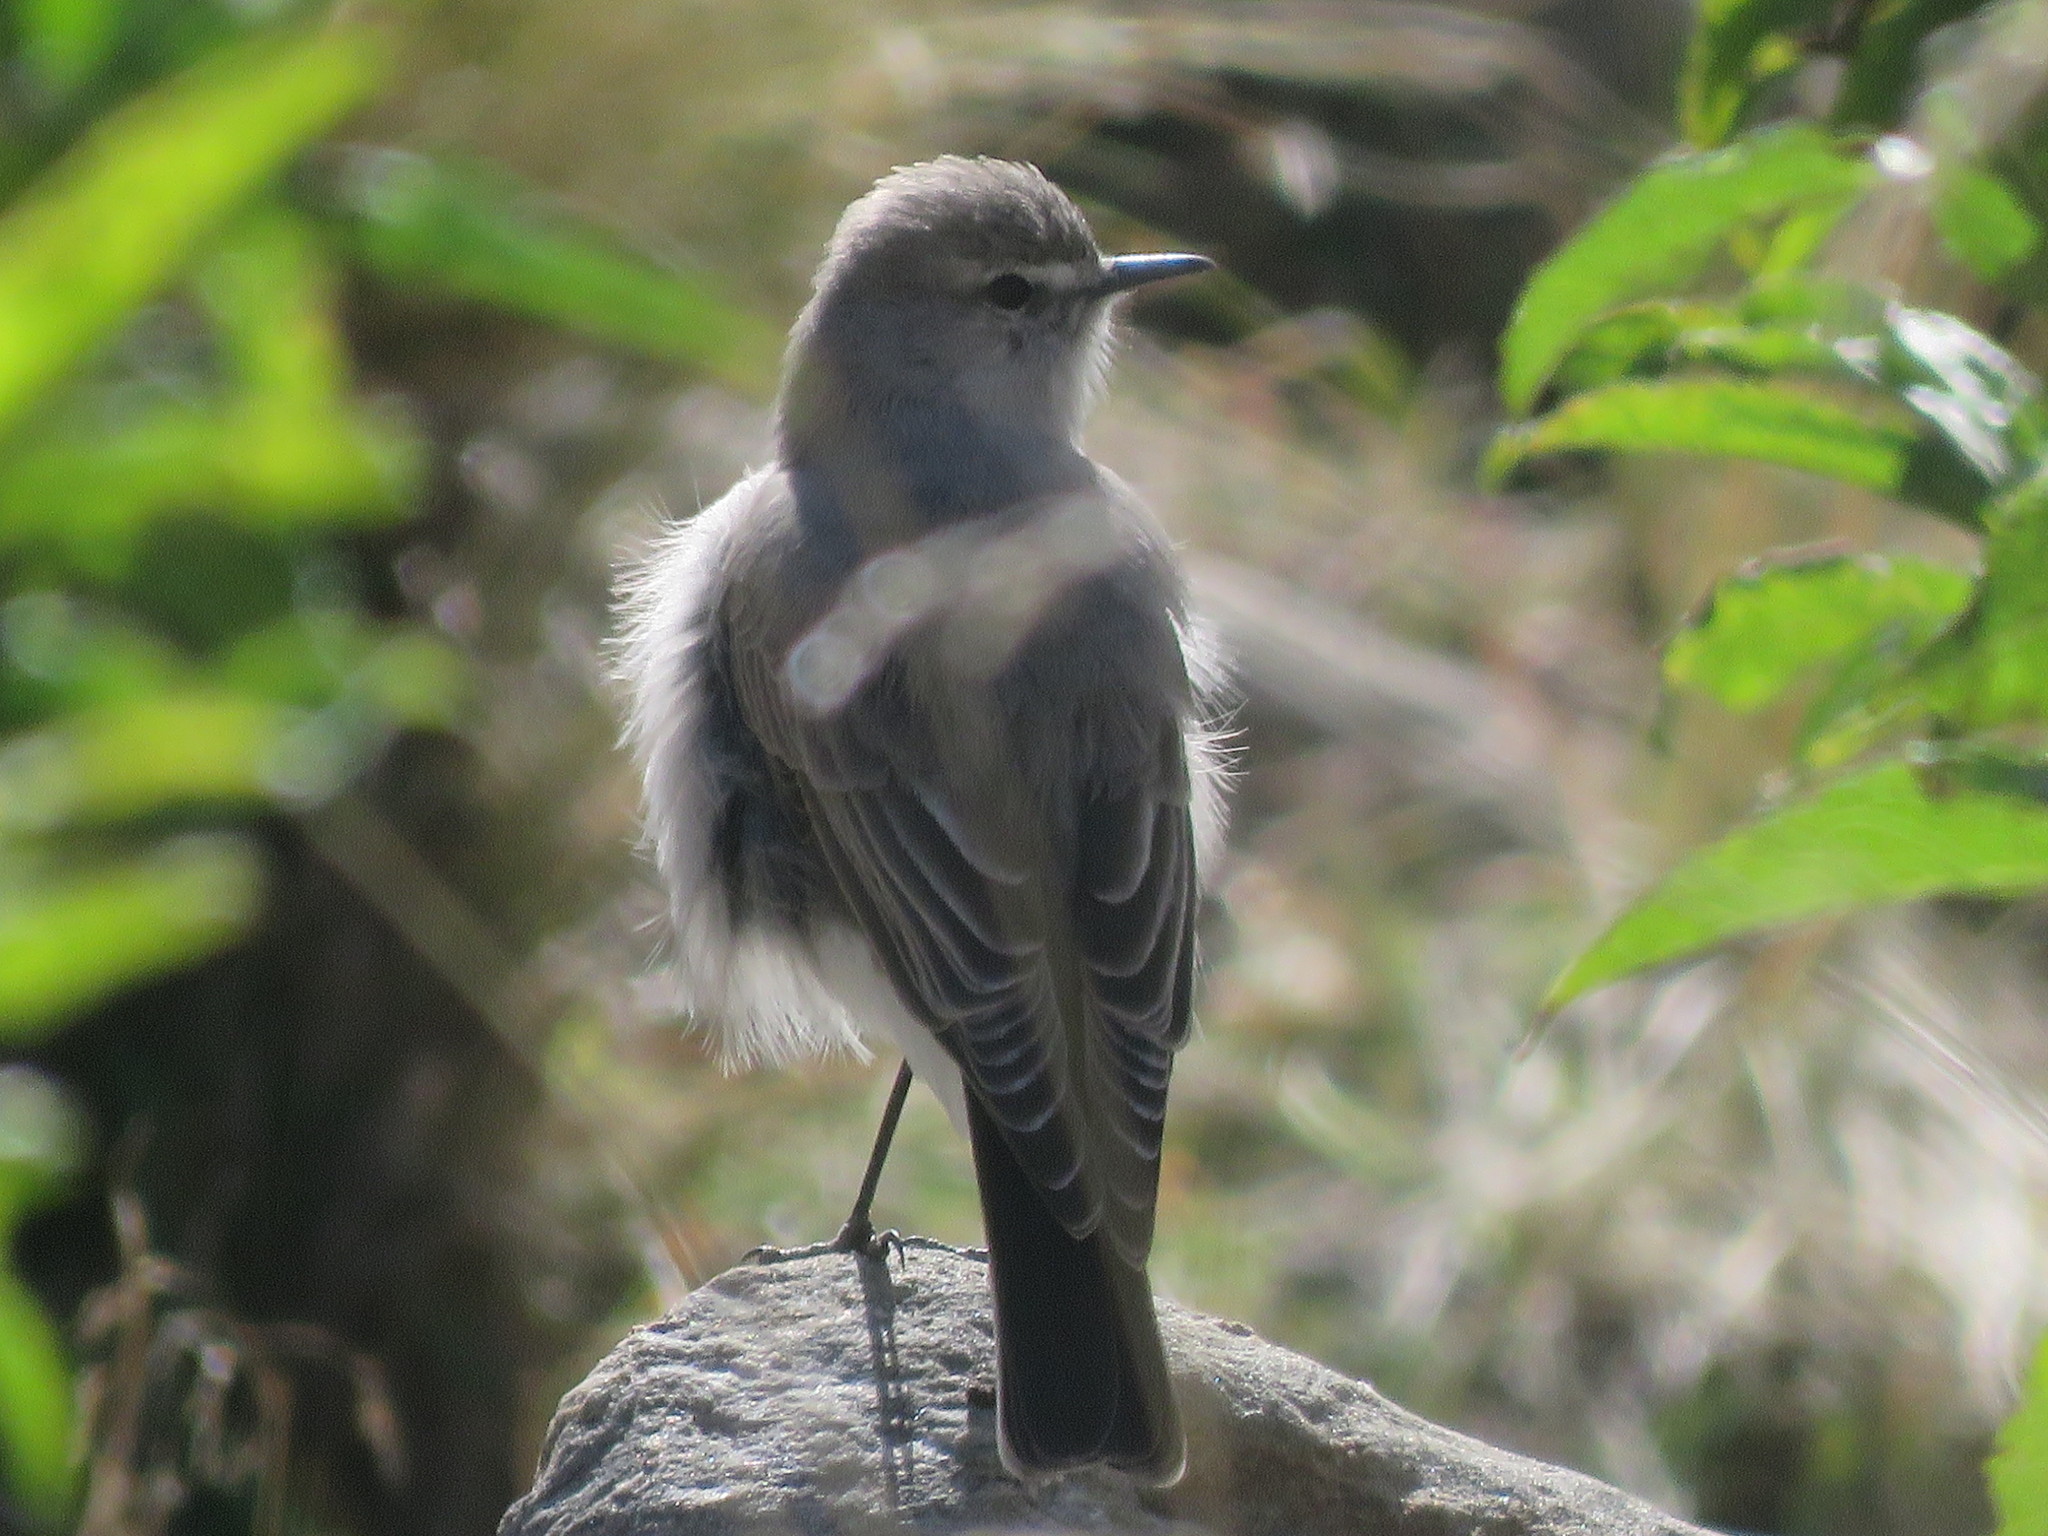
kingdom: Animalia
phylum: Chordata
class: Aves
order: Passeriformes
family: Tyrannidae
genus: Muscisaxicola
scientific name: Muscisaxicola cinereus
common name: Cinereous ground tyrant
